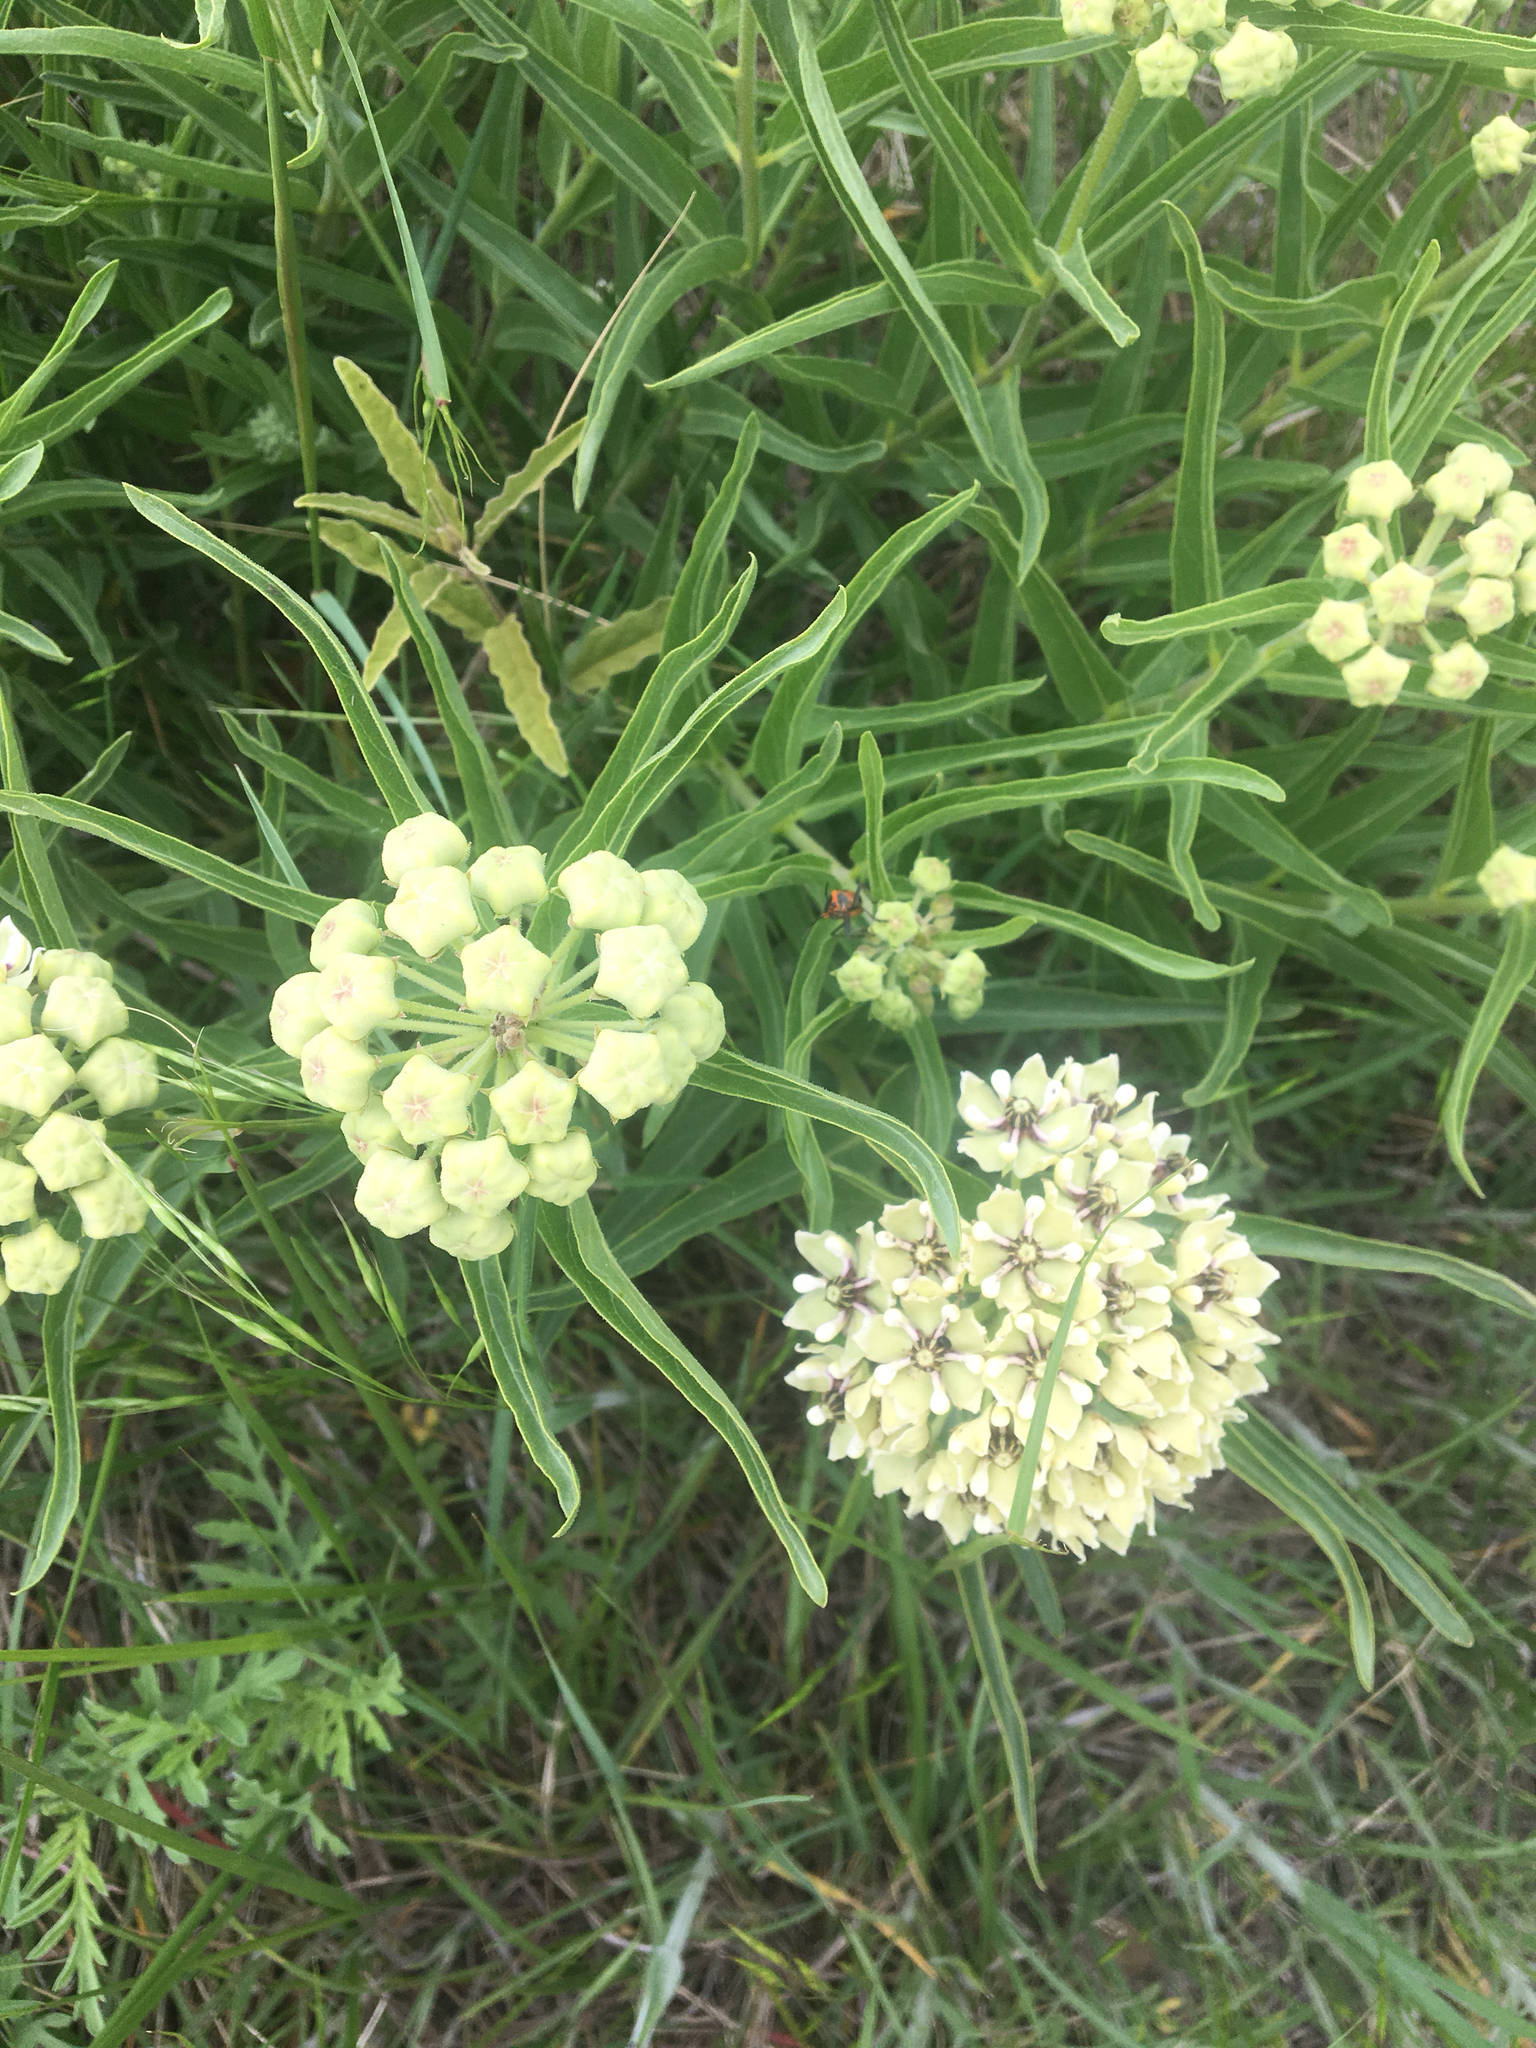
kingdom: Plantae
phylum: Tracheophyta
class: Magnoliopsida
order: Gentianales
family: Apocynaceae
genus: Asclepias
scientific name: Asclepias asperula
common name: Antelope horns
